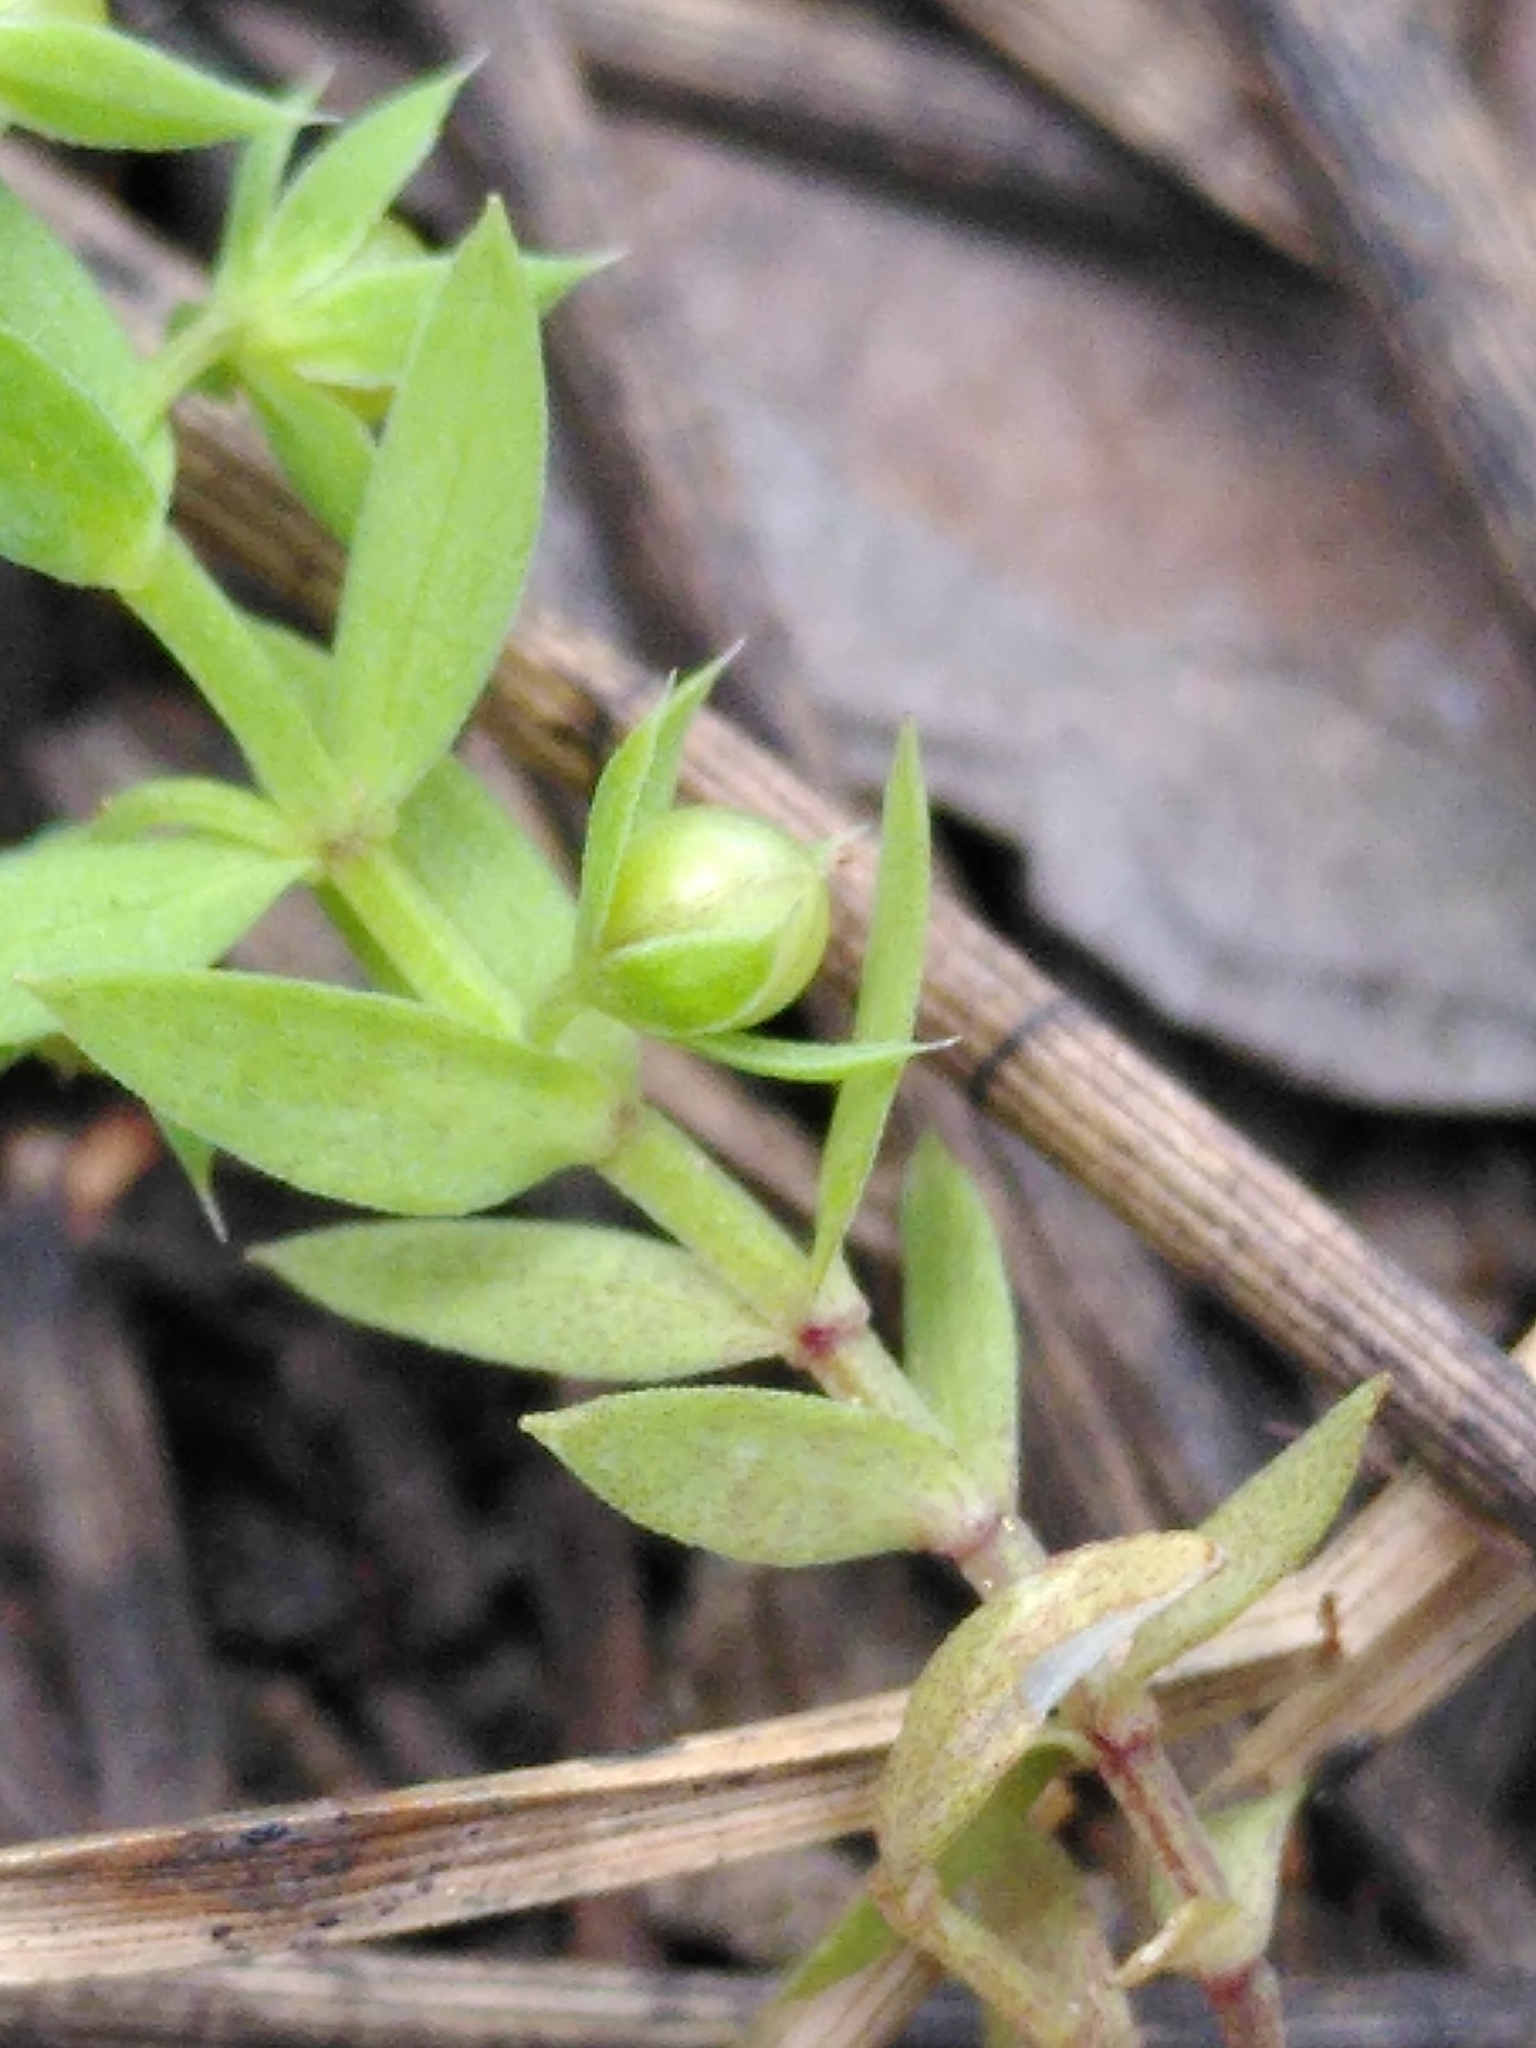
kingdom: Plantae
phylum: Tracheophyta
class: Magnoliopsida
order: Ericales
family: Primulaceae
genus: Lysimachia
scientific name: Lysimachia linum-stellatum
